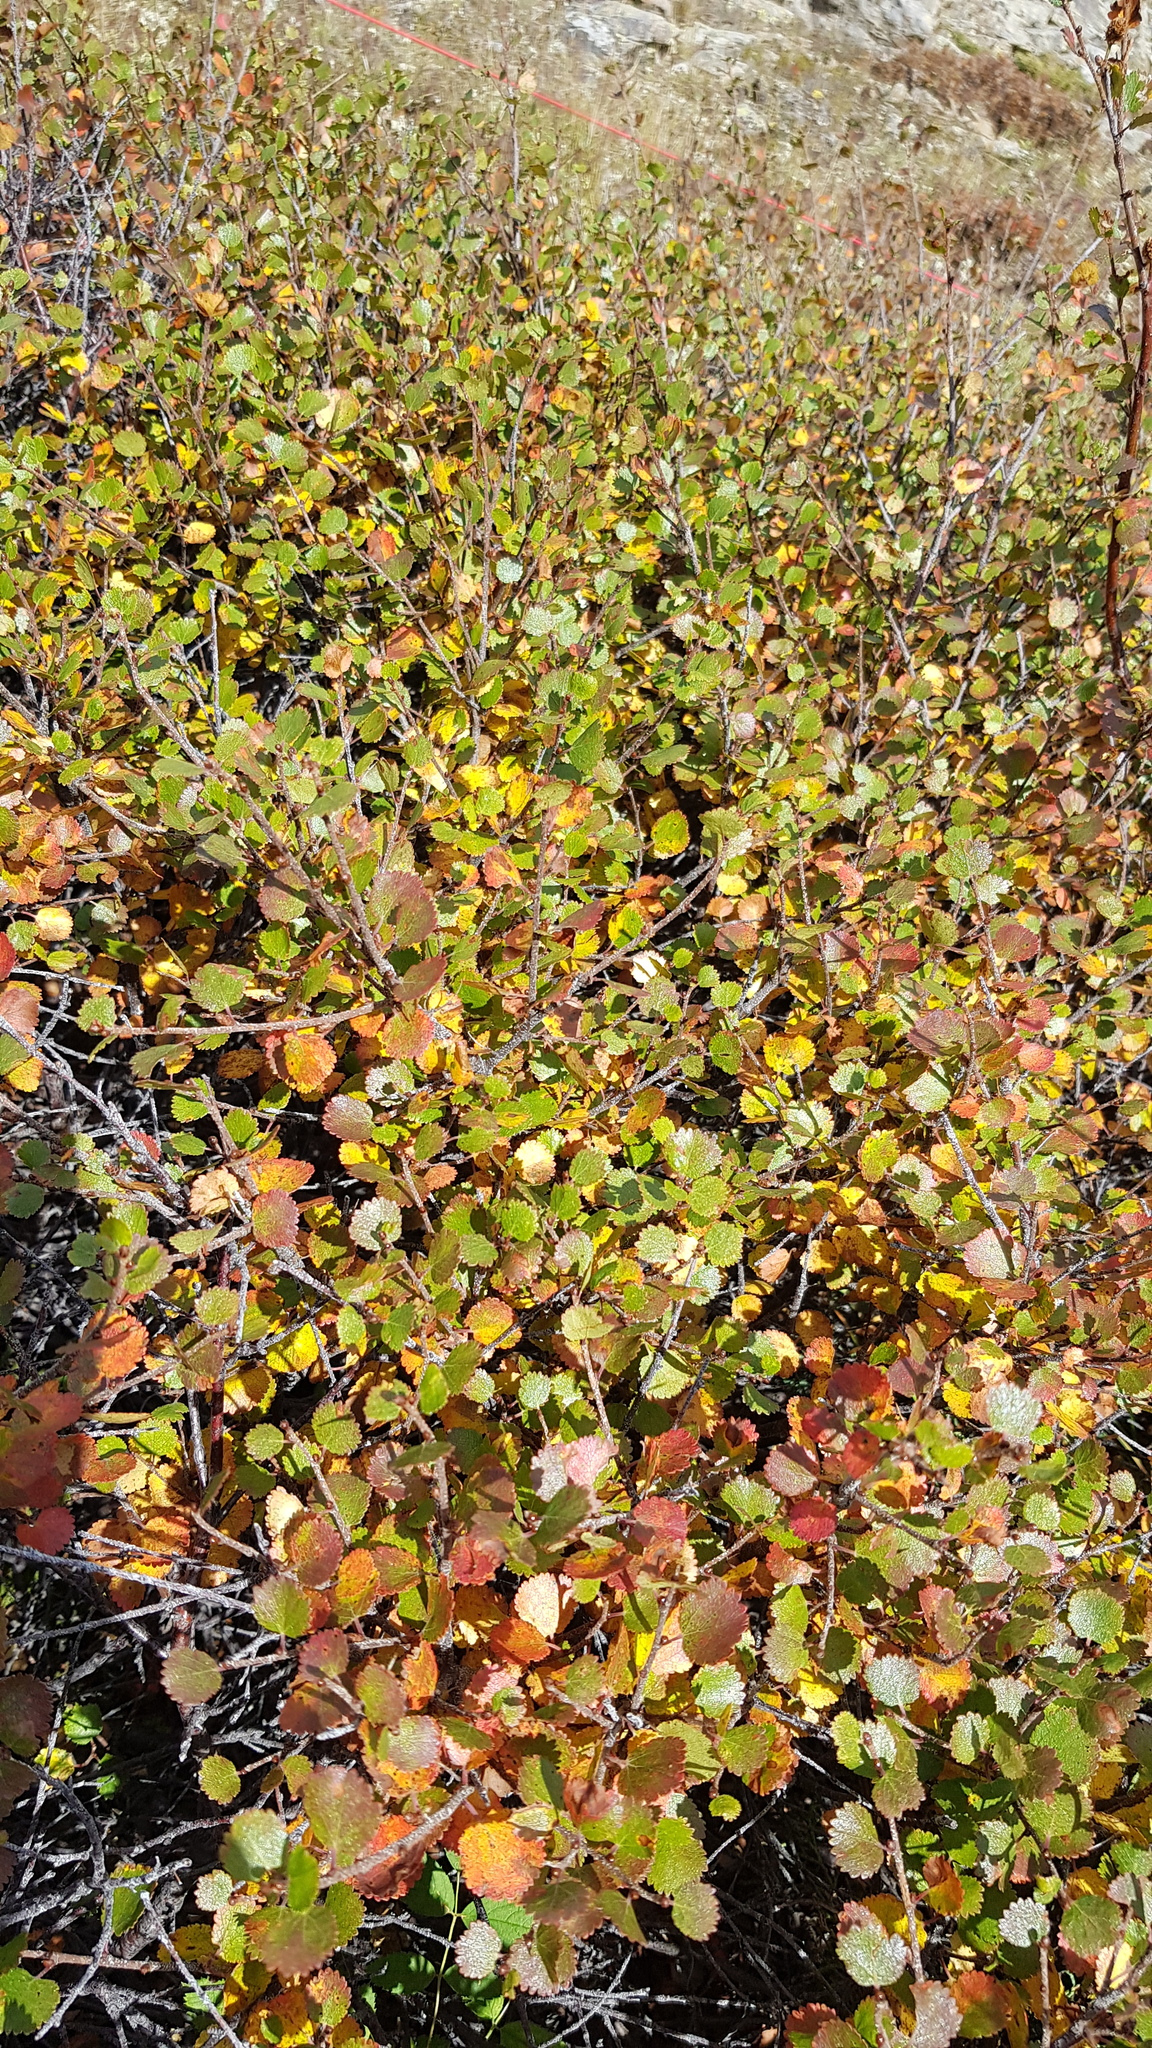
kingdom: Plantae
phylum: Tracheophyta
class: Magnoliopsida
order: Fagales
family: Betulaceae
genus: Betula
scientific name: Betula glandulosa
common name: Dwarf birch
